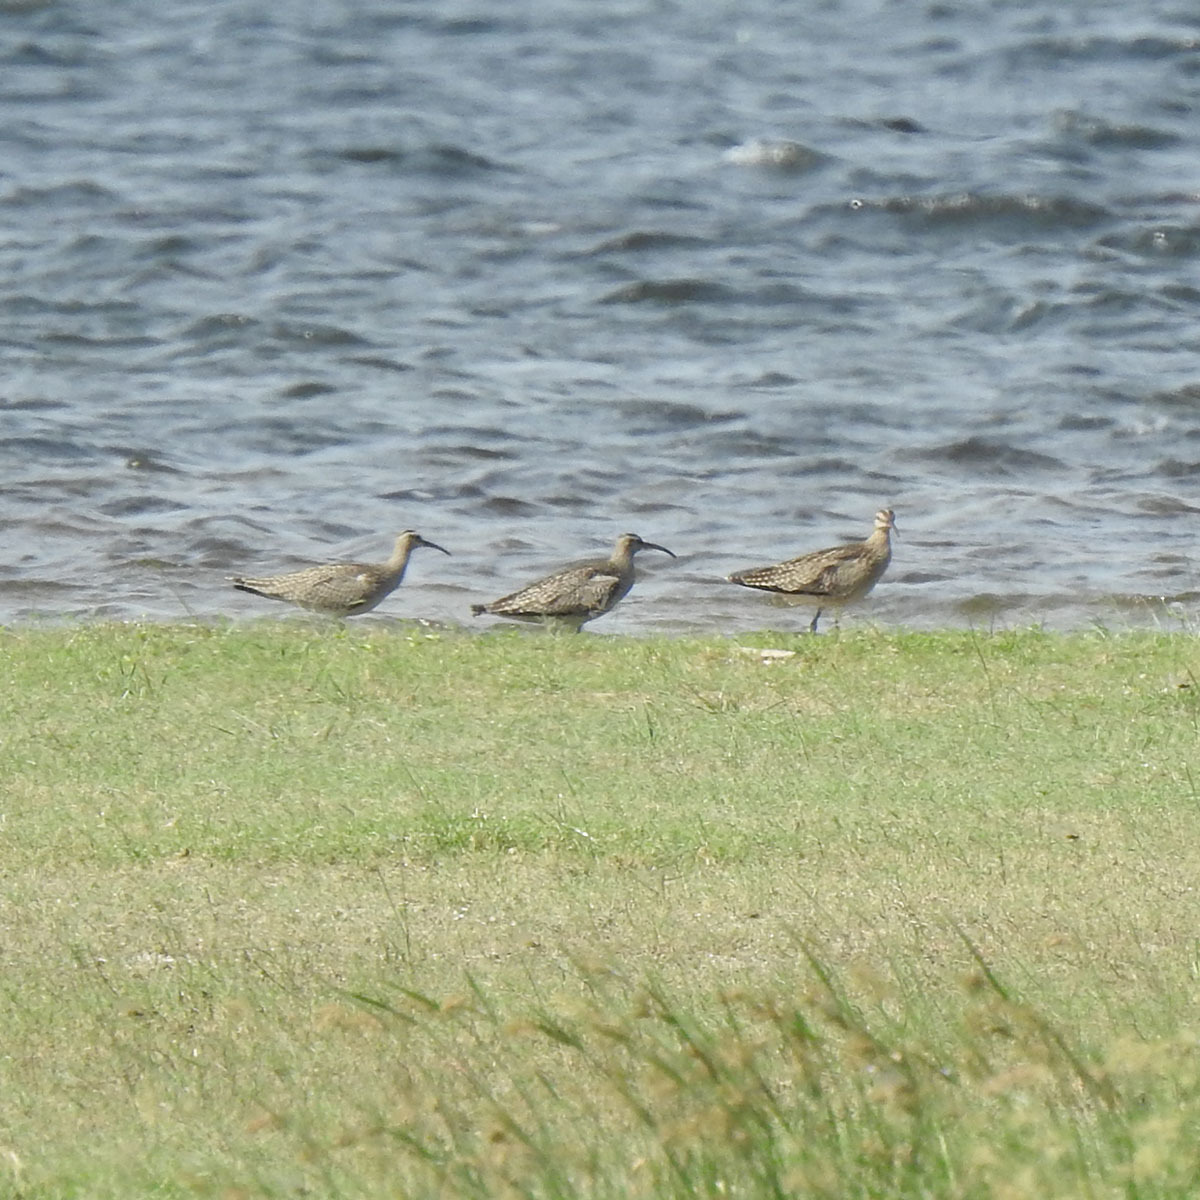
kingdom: Animalia
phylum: Chordata
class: Aves
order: Charadriiformes
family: Scolopacidae
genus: Numenius
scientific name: Numenius phaeopus
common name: Whimbrel
